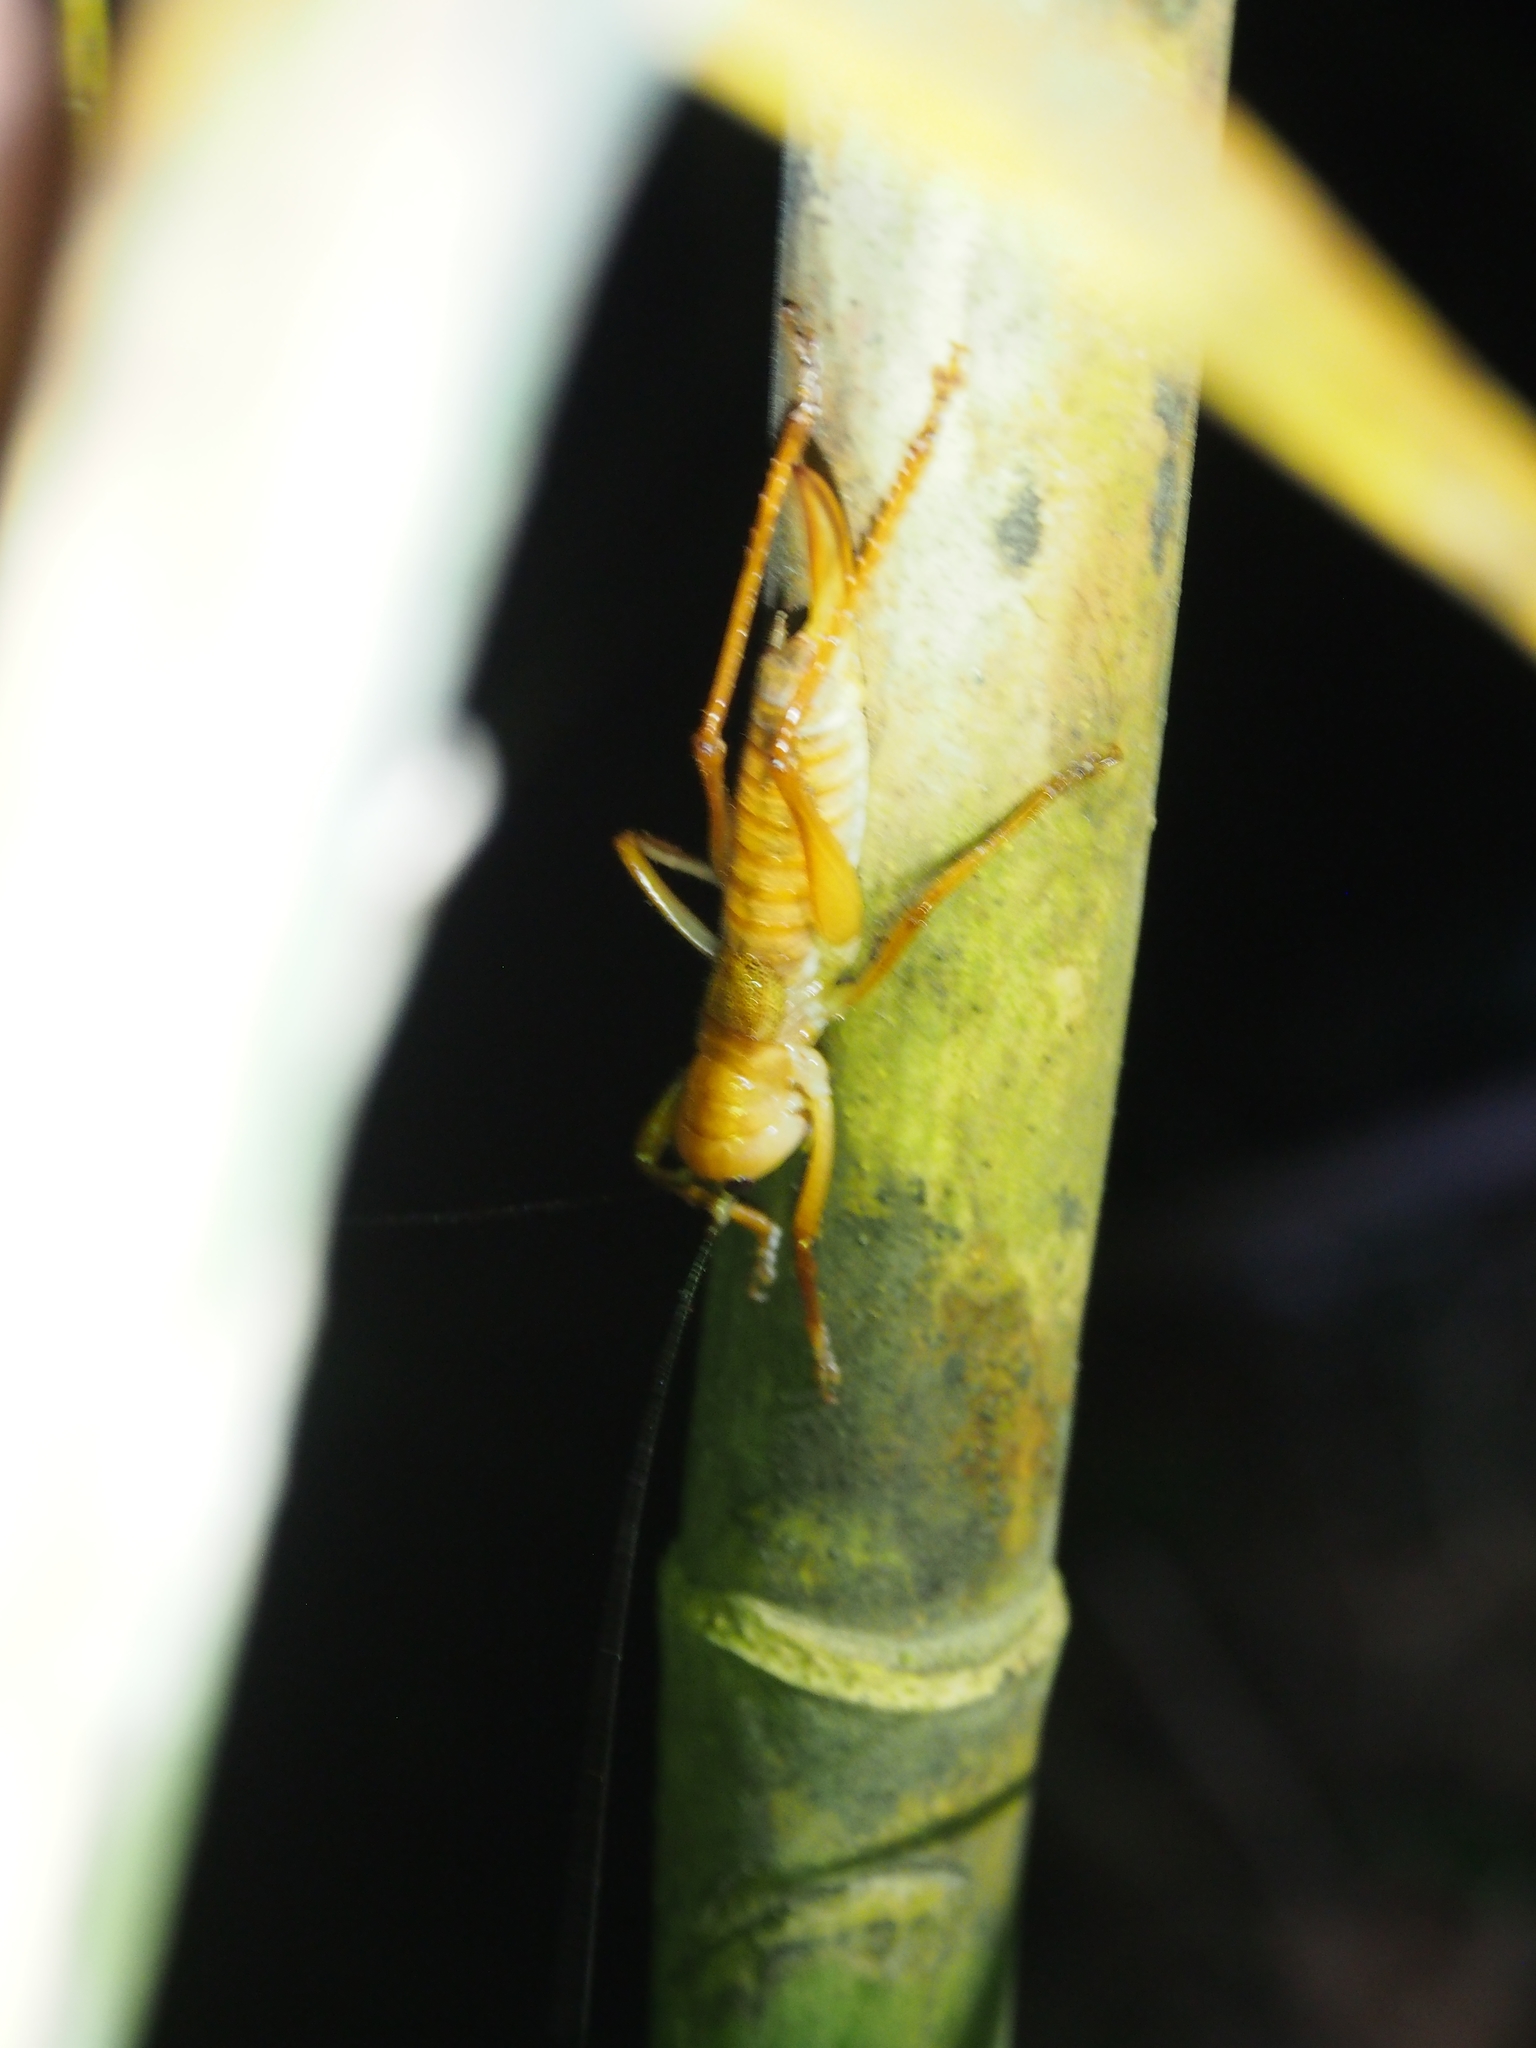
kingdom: Animalia
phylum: Arthropoda
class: Insecta
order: Orthoptera
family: Tettigoniidae
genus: Melanonotus
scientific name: Melanonotus powellorum
